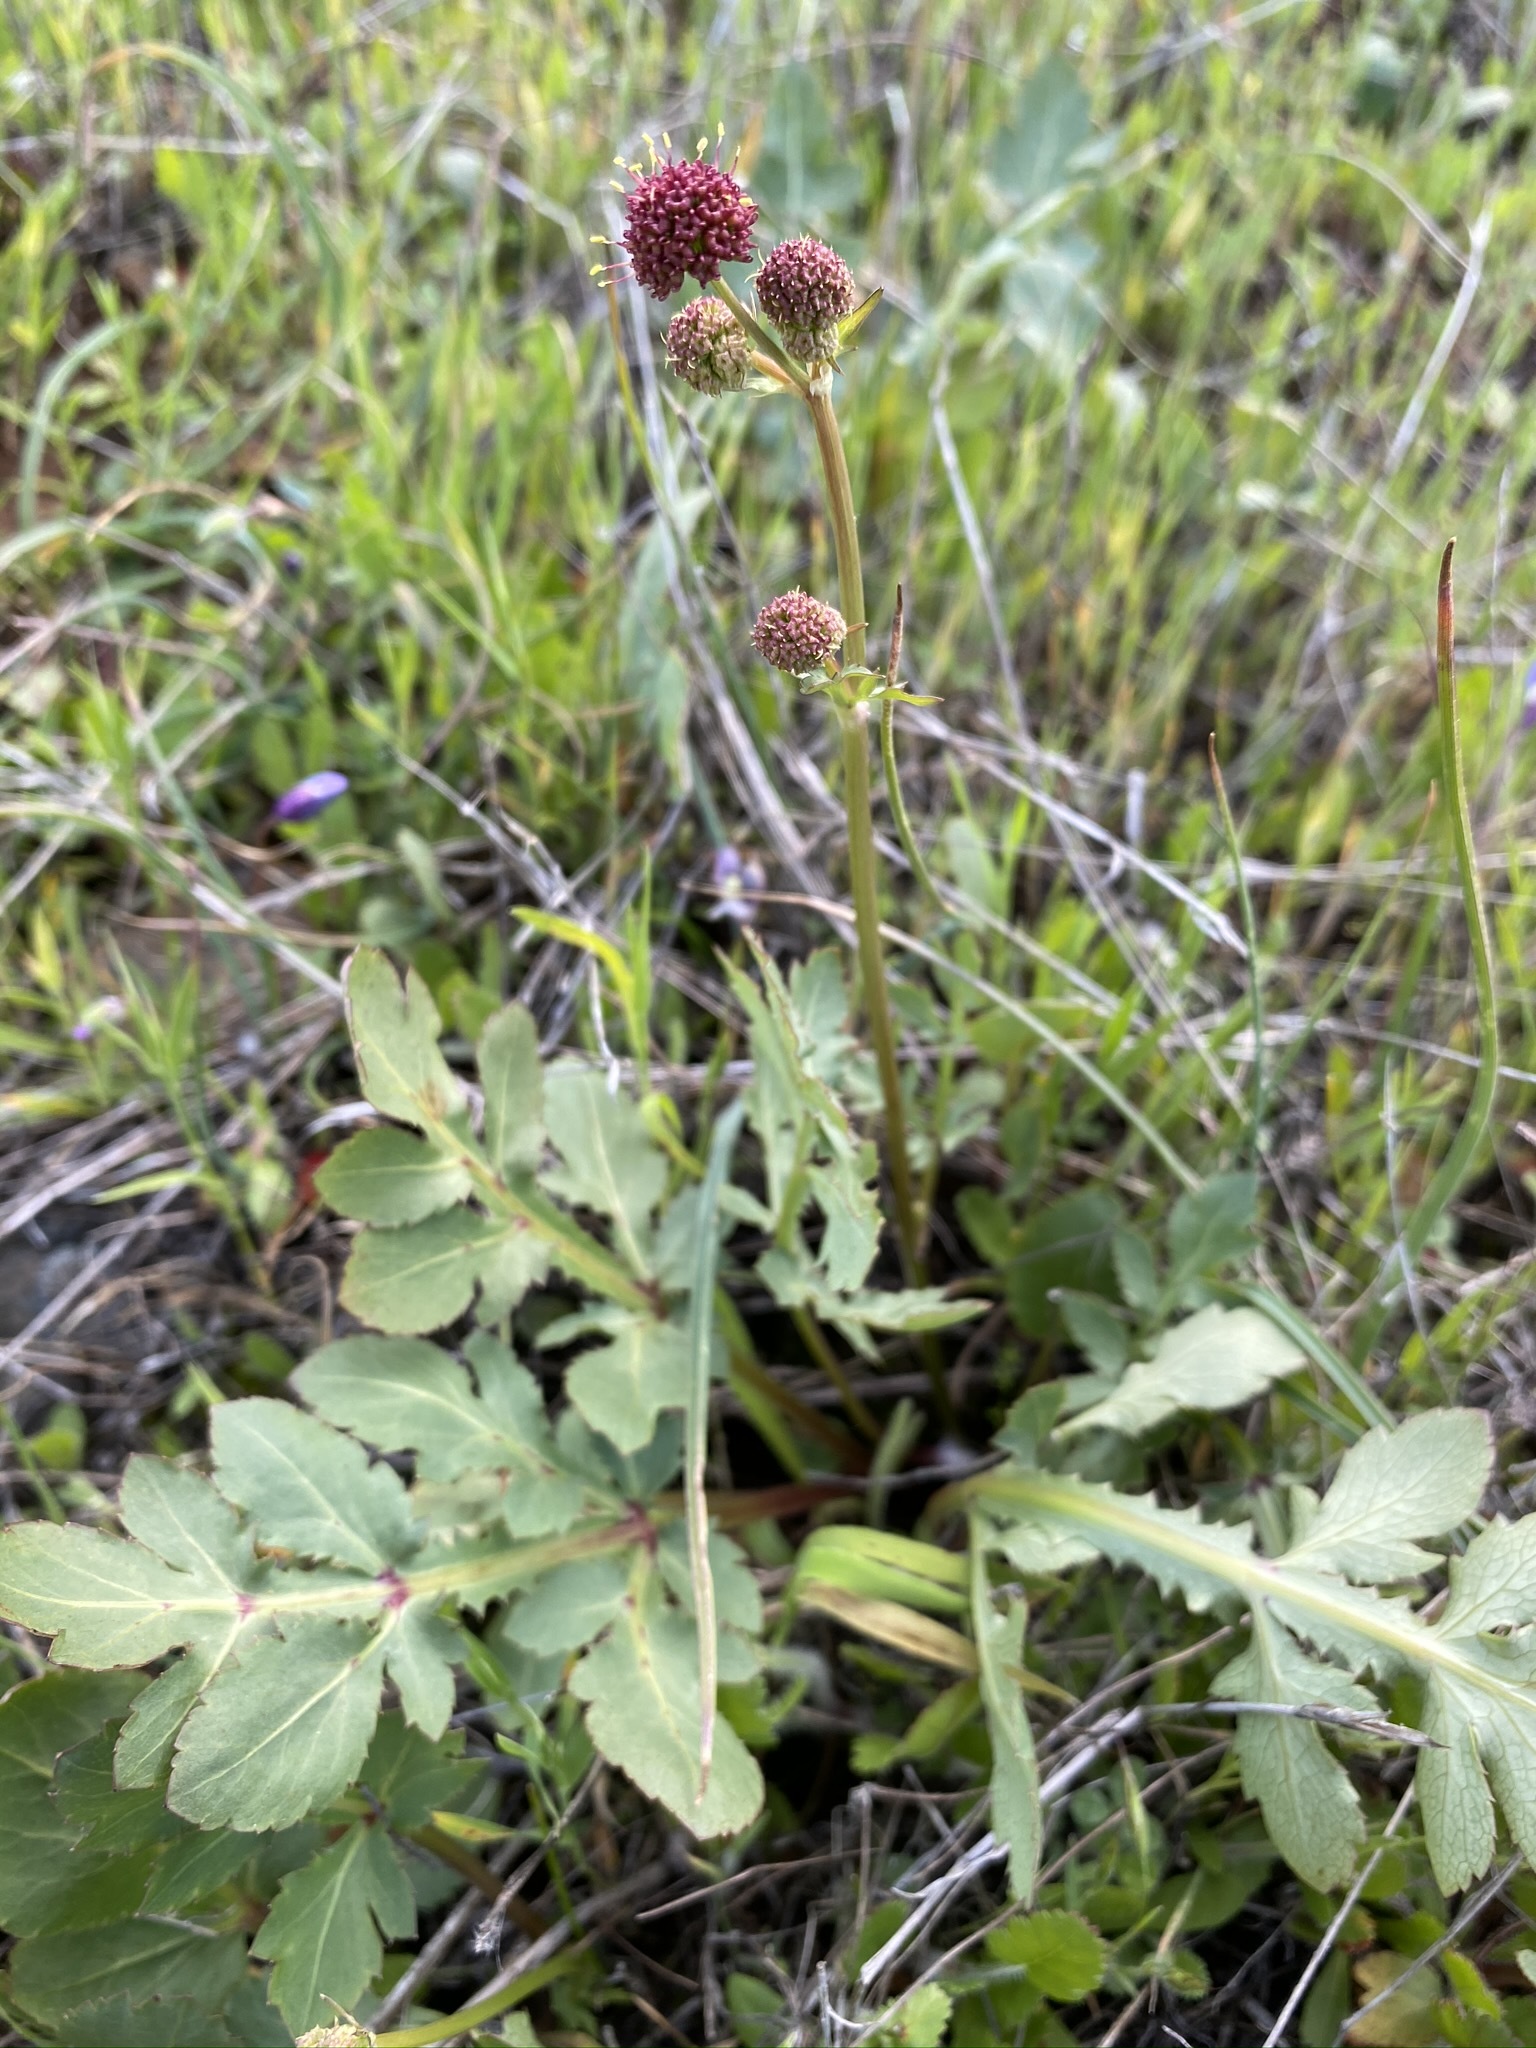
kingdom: Plantae
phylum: Tracheophyta
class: Magnoliopsida
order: Apiales
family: Apiaceae
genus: Sanicula
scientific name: Sanicula bipinnatifida
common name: Shoe-buttons
